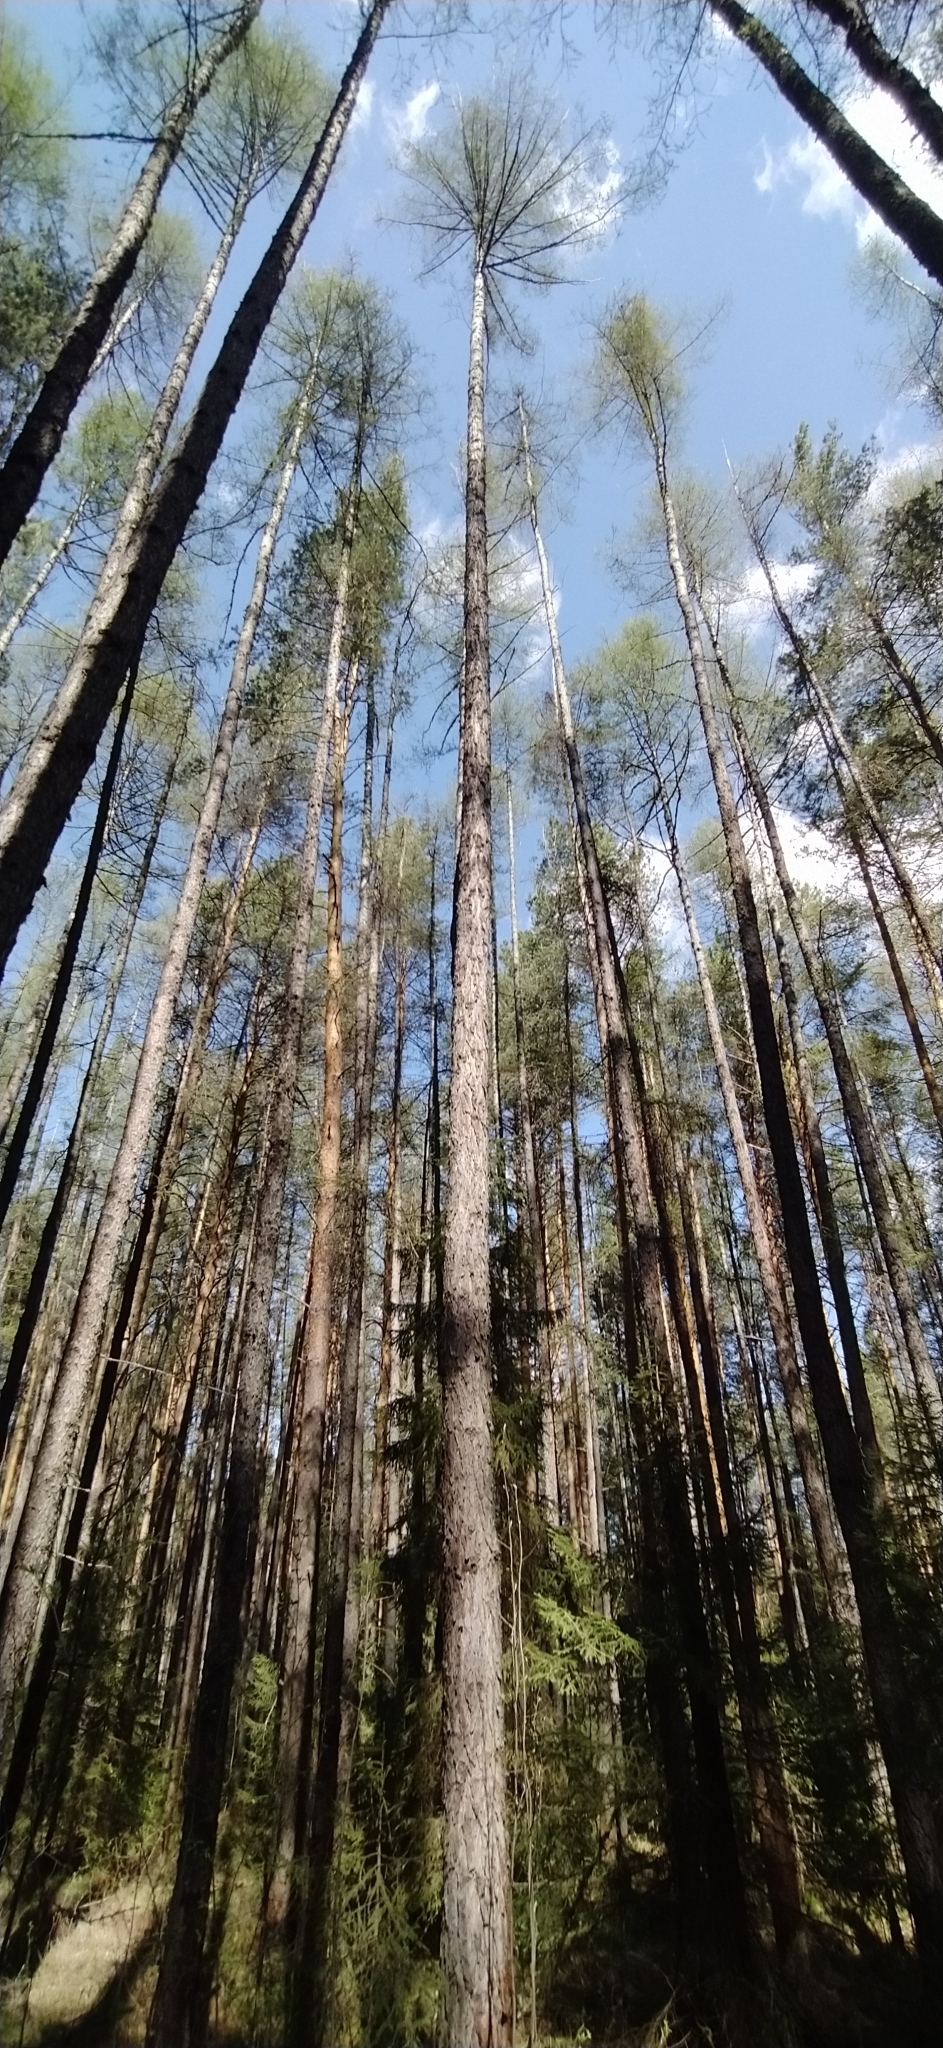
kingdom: Plantae
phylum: Tracheophyta
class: Pinopsida
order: Pinales
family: Pinaceae
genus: Larix
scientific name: Larix sibirica
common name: Siberian larch
